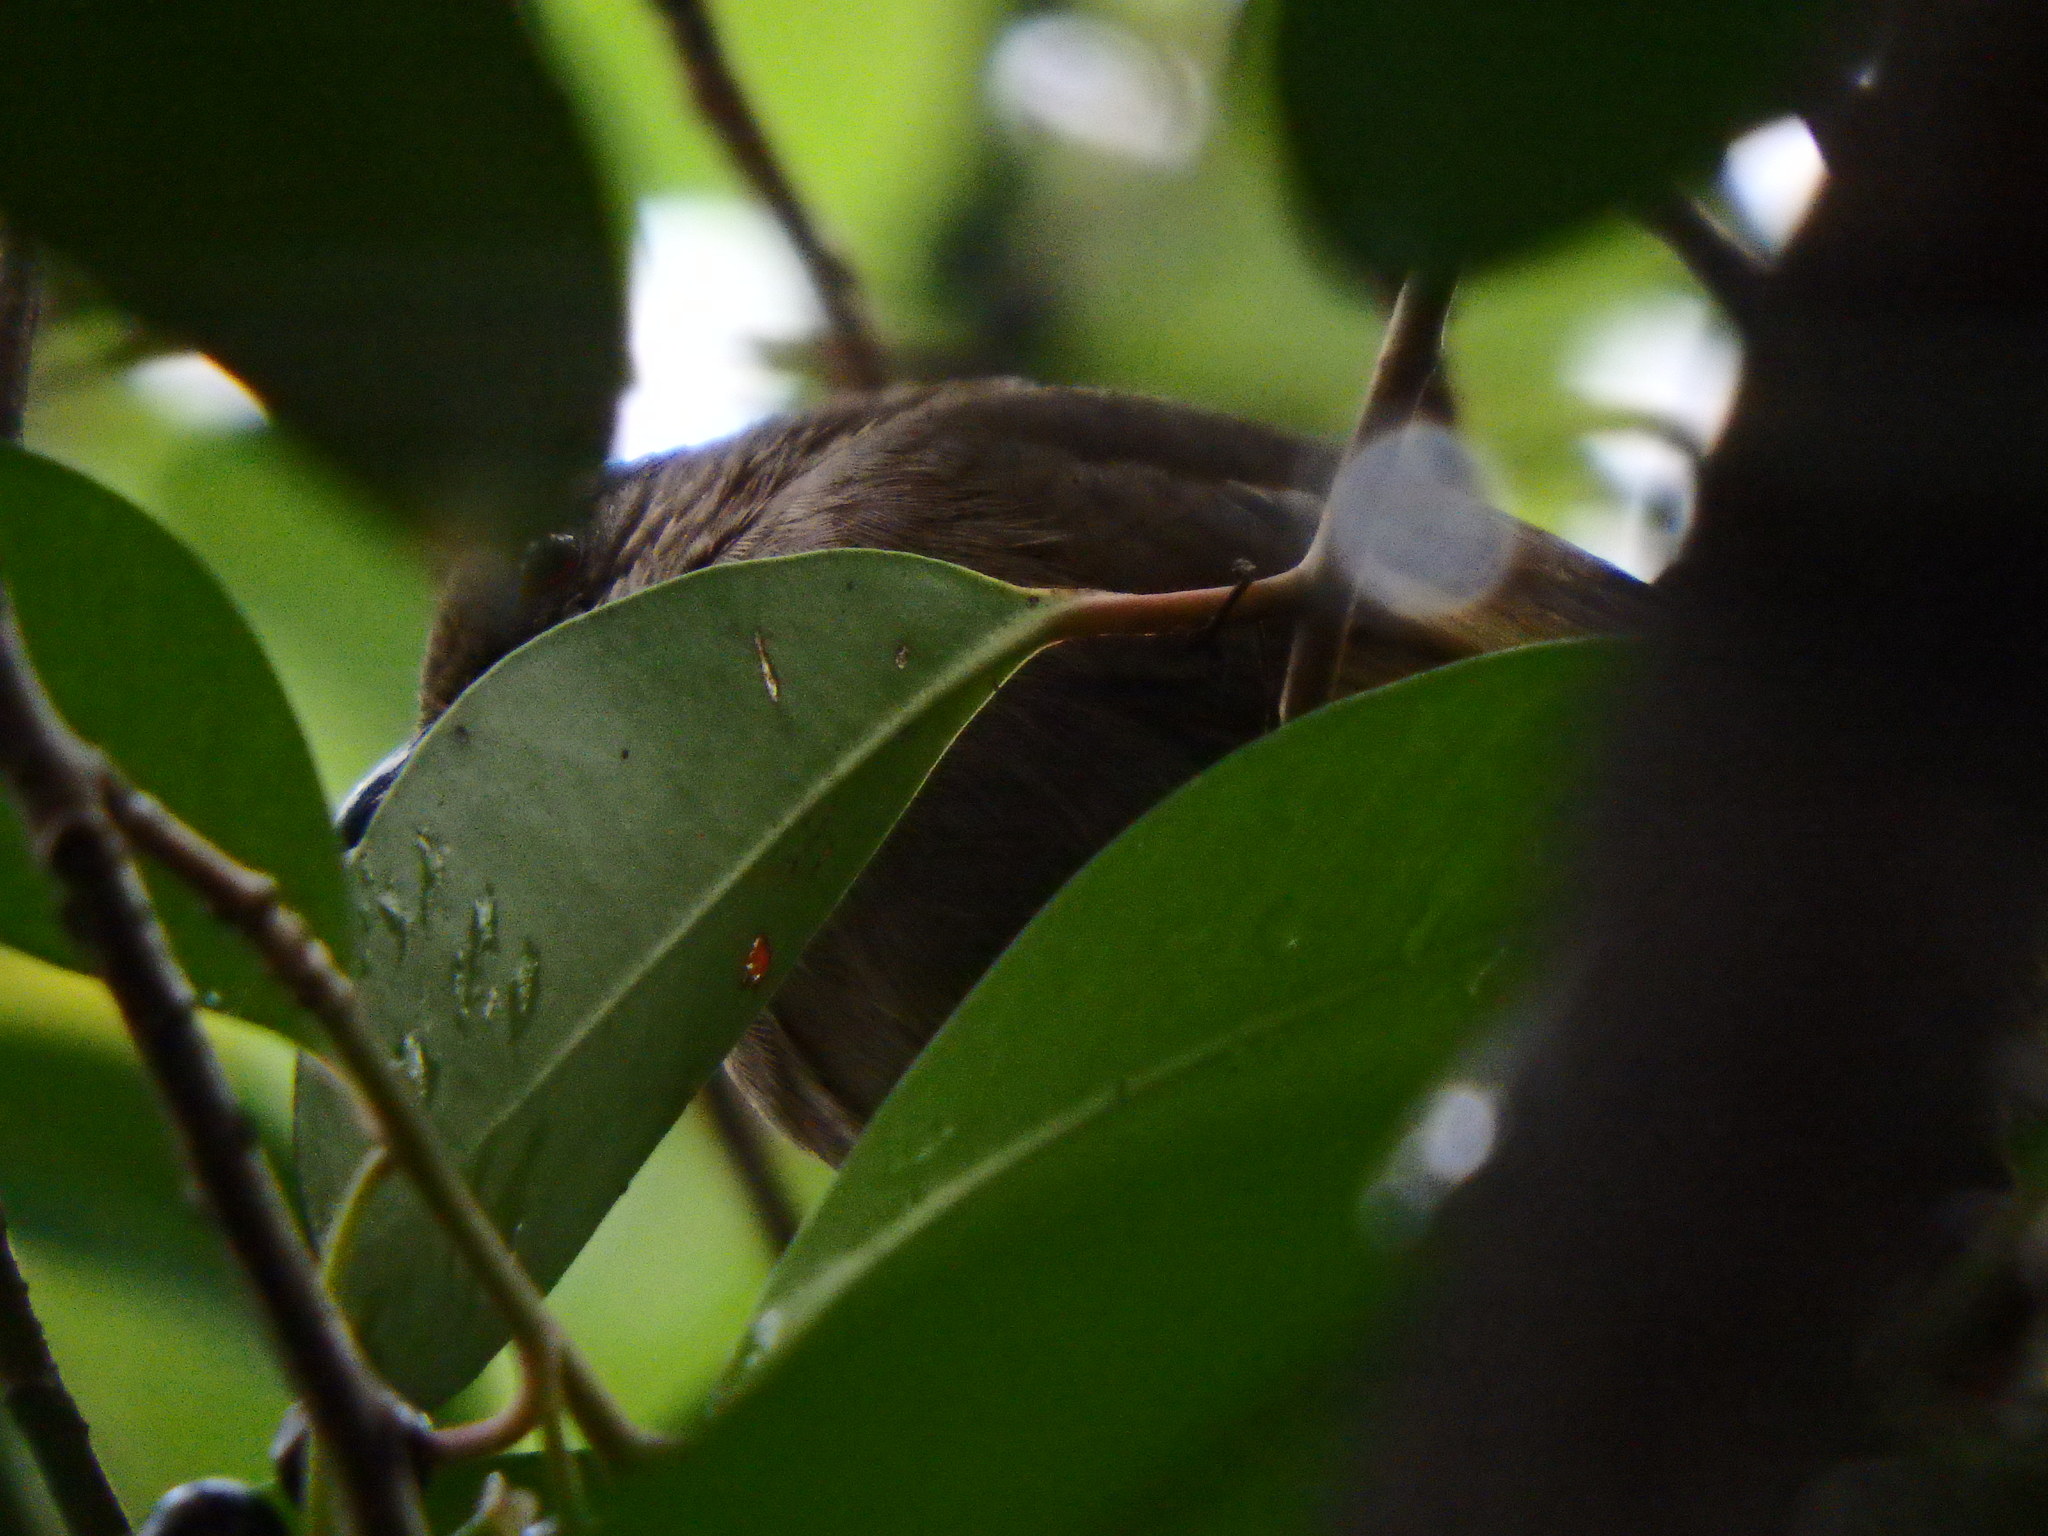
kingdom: Animalia
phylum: Chordata
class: Aves
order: Passeriformes
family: Pycnonotidae
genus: Pycnonotus
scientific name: Pycnonotus plumosus
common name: Olive-winged bulbul
